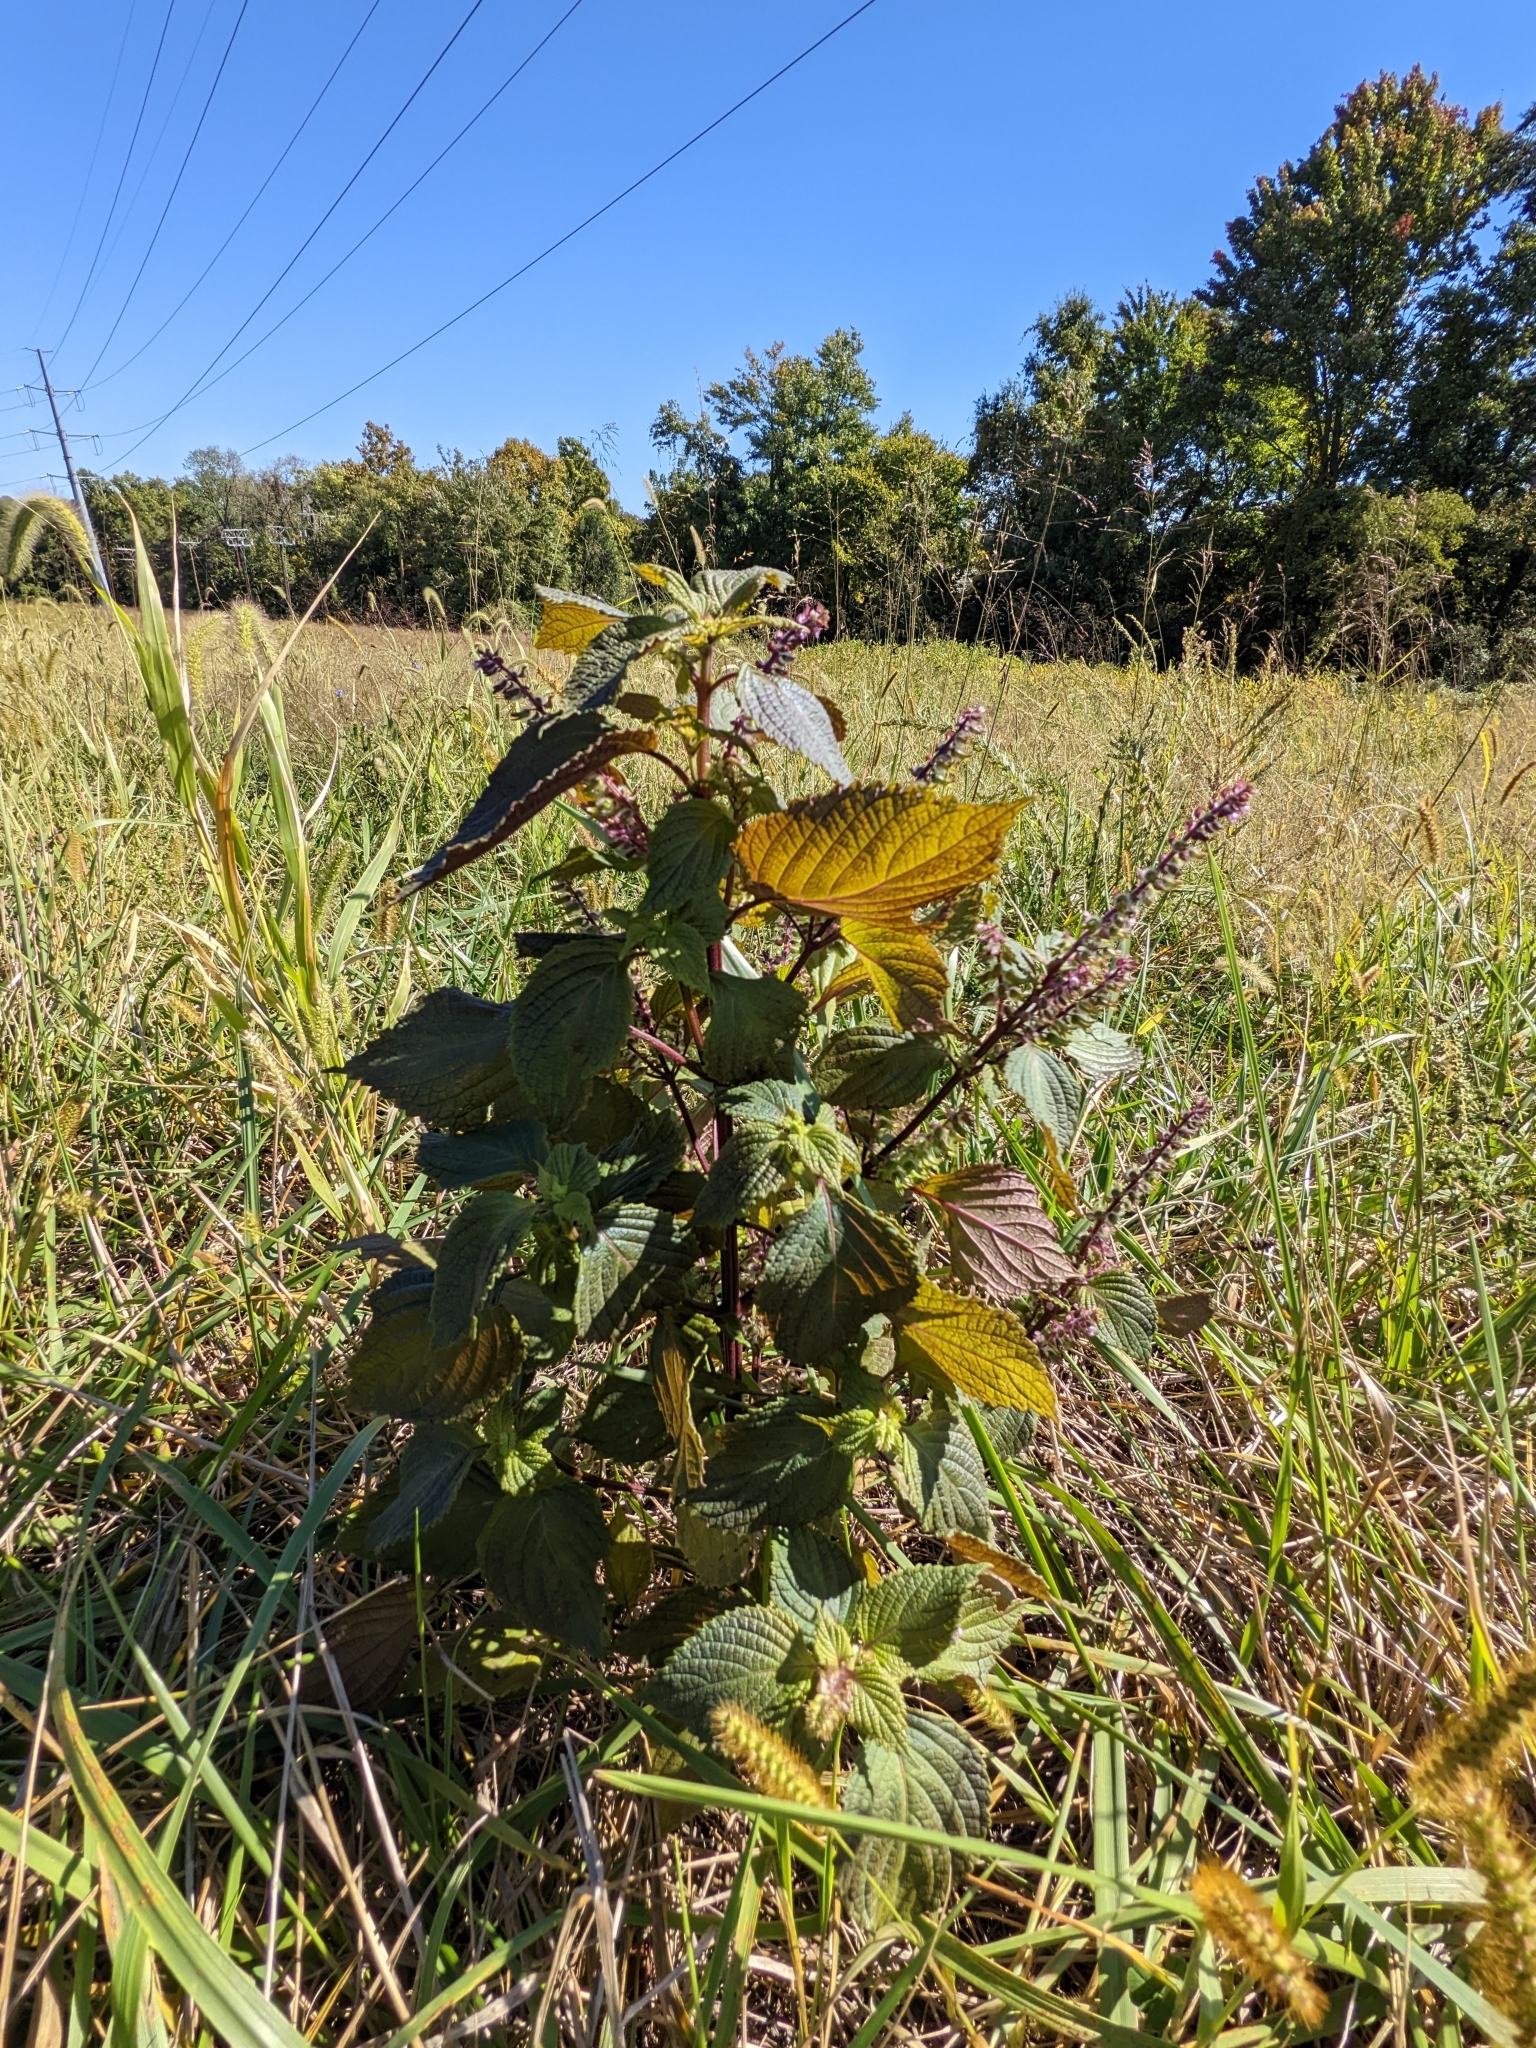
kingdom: Plantae
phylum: Tracheophyta
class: Magnoliopsida
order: Lamiales
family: Lamiaceae
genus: Perilla
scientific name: Perilla frutescens
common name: Perilla
